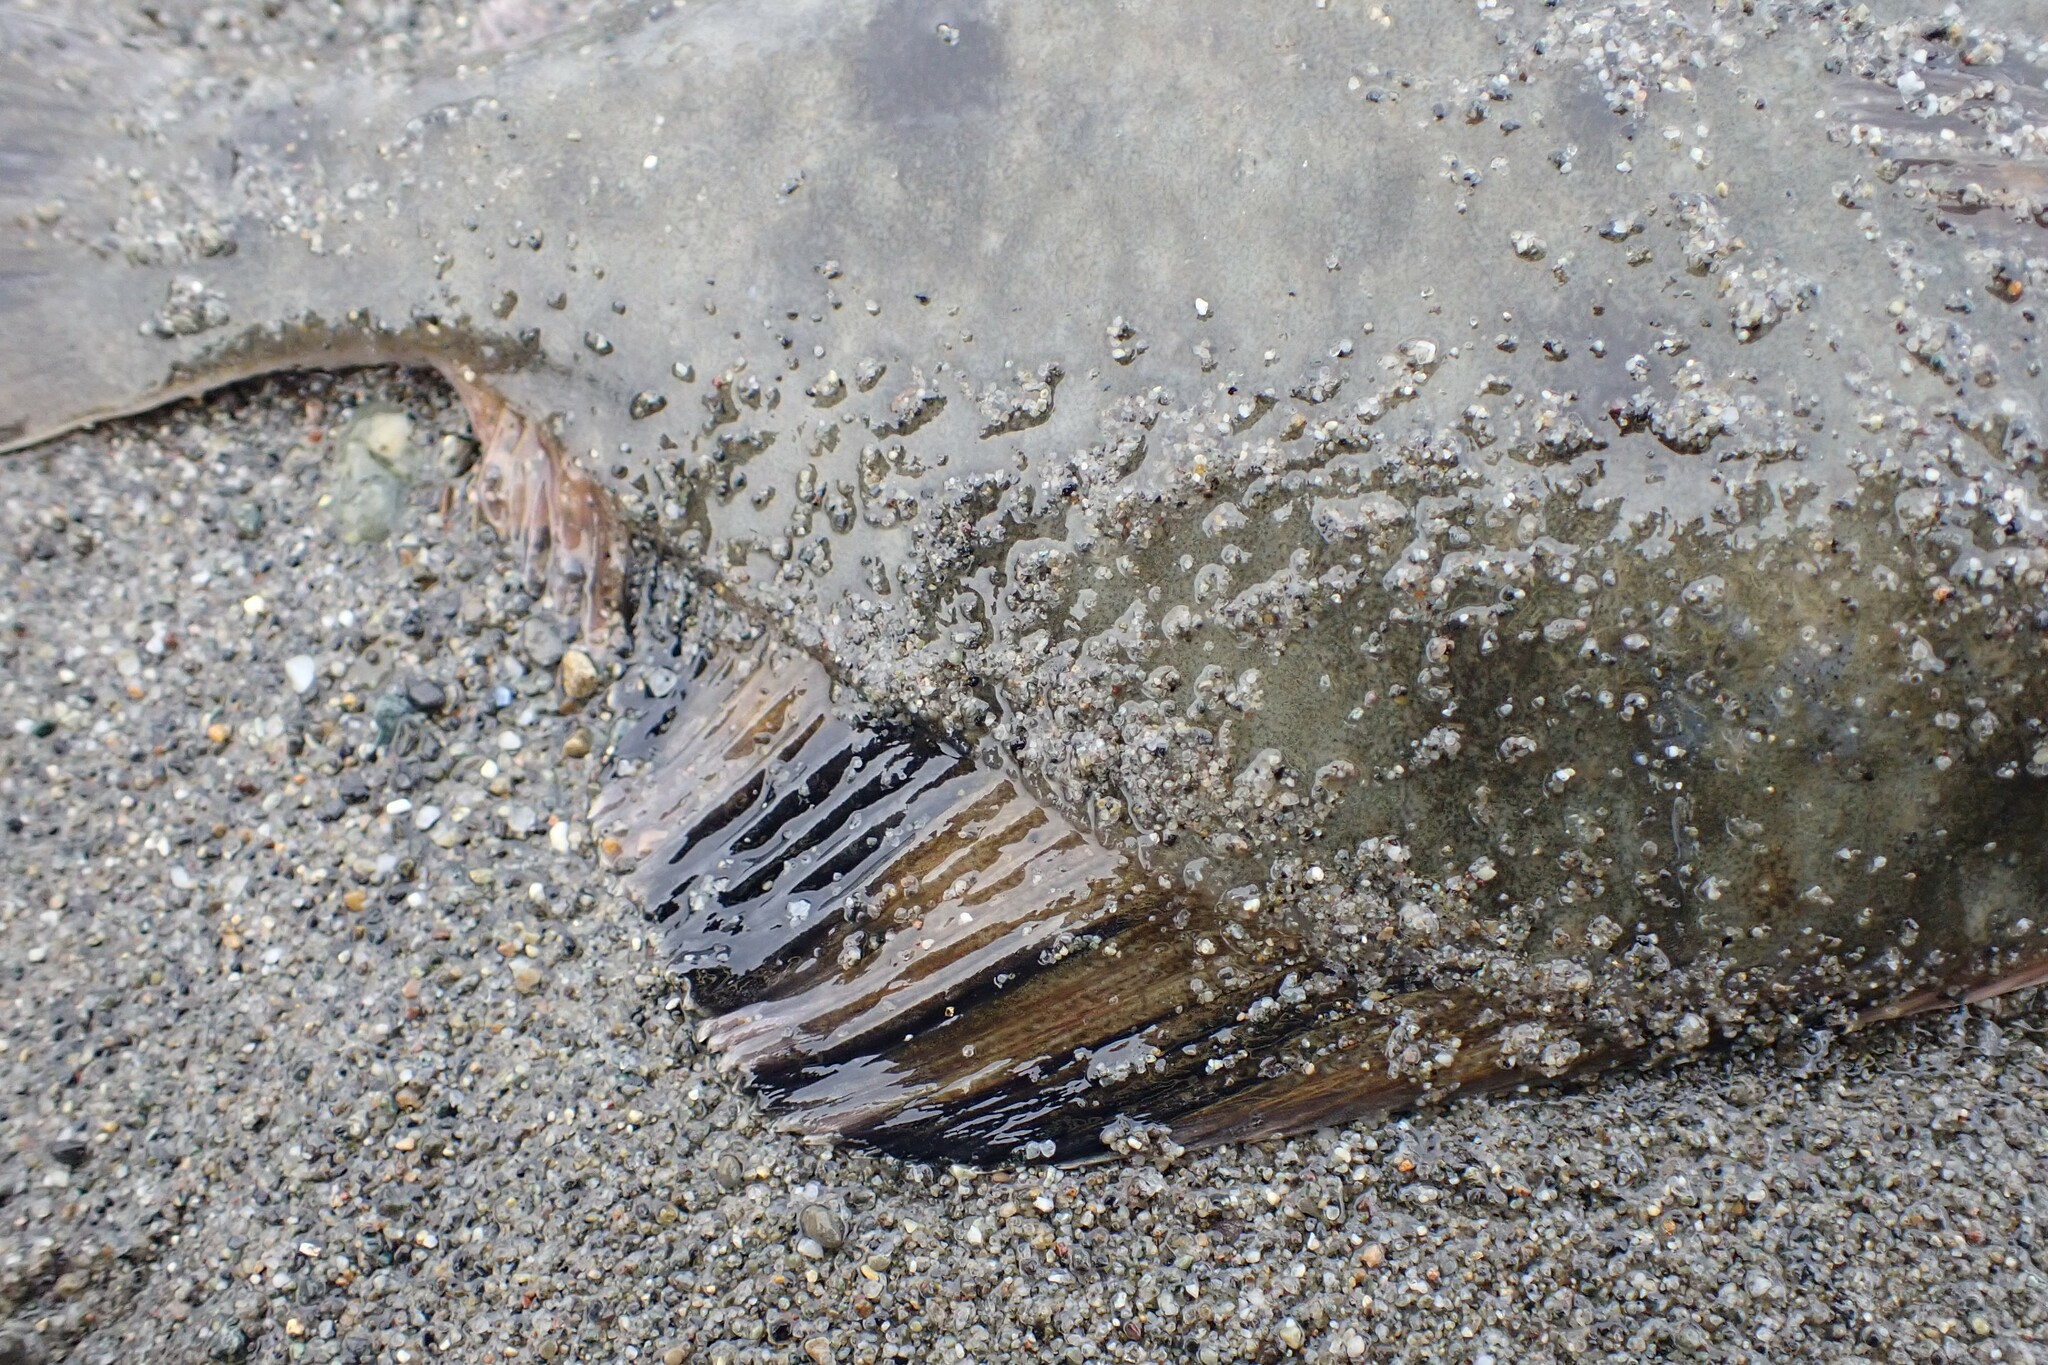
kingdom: Animalia
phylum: Chordata
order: Pleuronectiformes
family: Pleuronectidae
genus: Platichthys
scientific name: Platichthys stellatus
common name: Starry flounder
